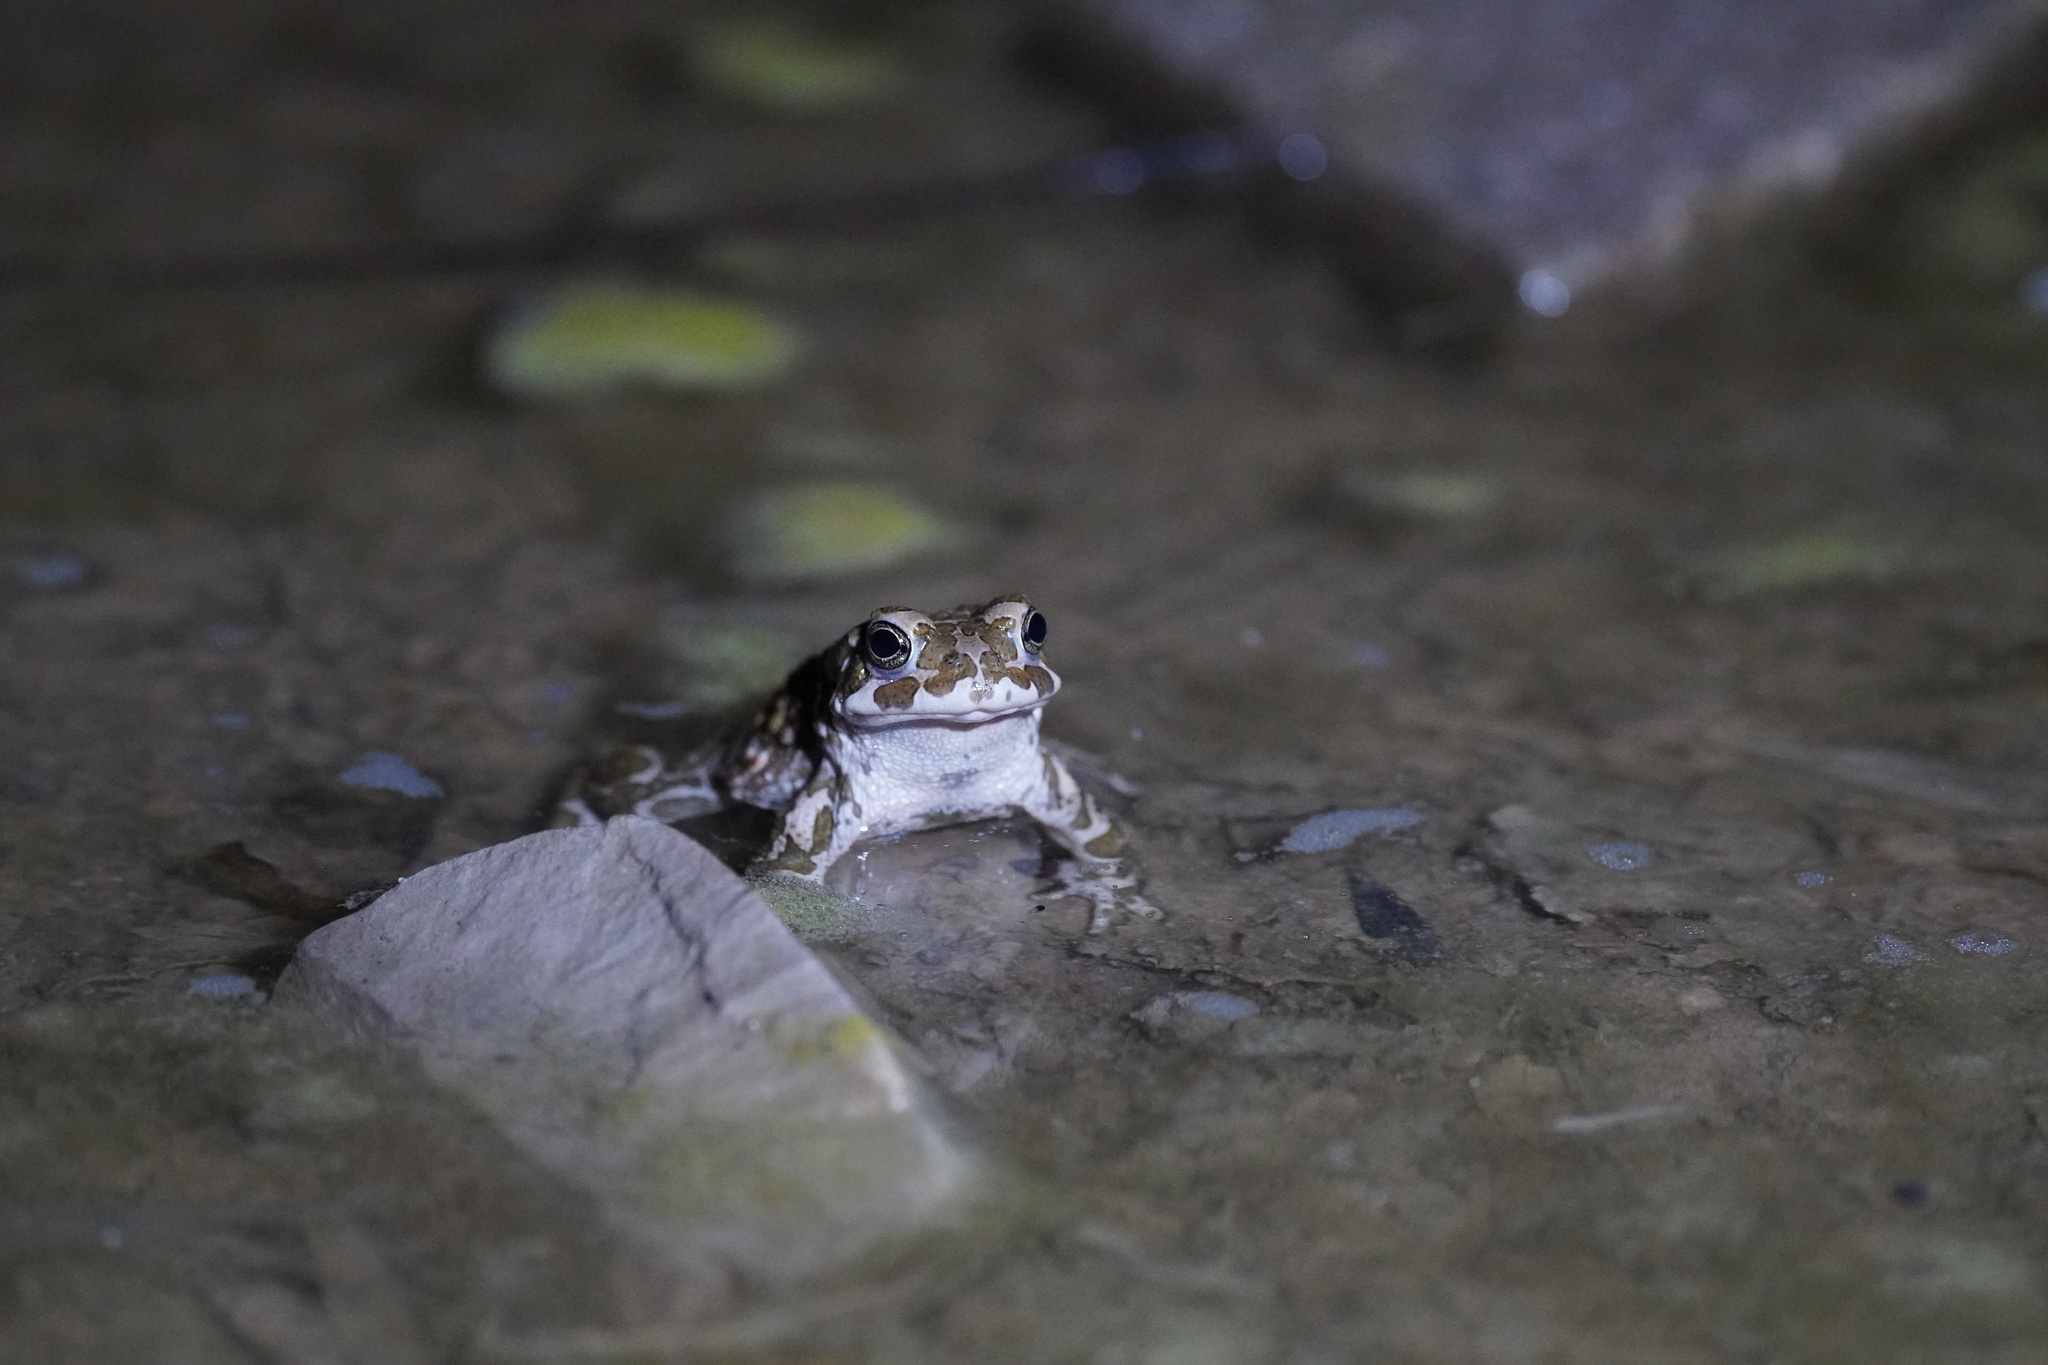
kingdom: Animalia
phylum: Chordata
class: Amphibia
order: Anura
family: Bufonidae
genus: Bufotes
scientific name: Bufotes viridis
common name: European green toad
